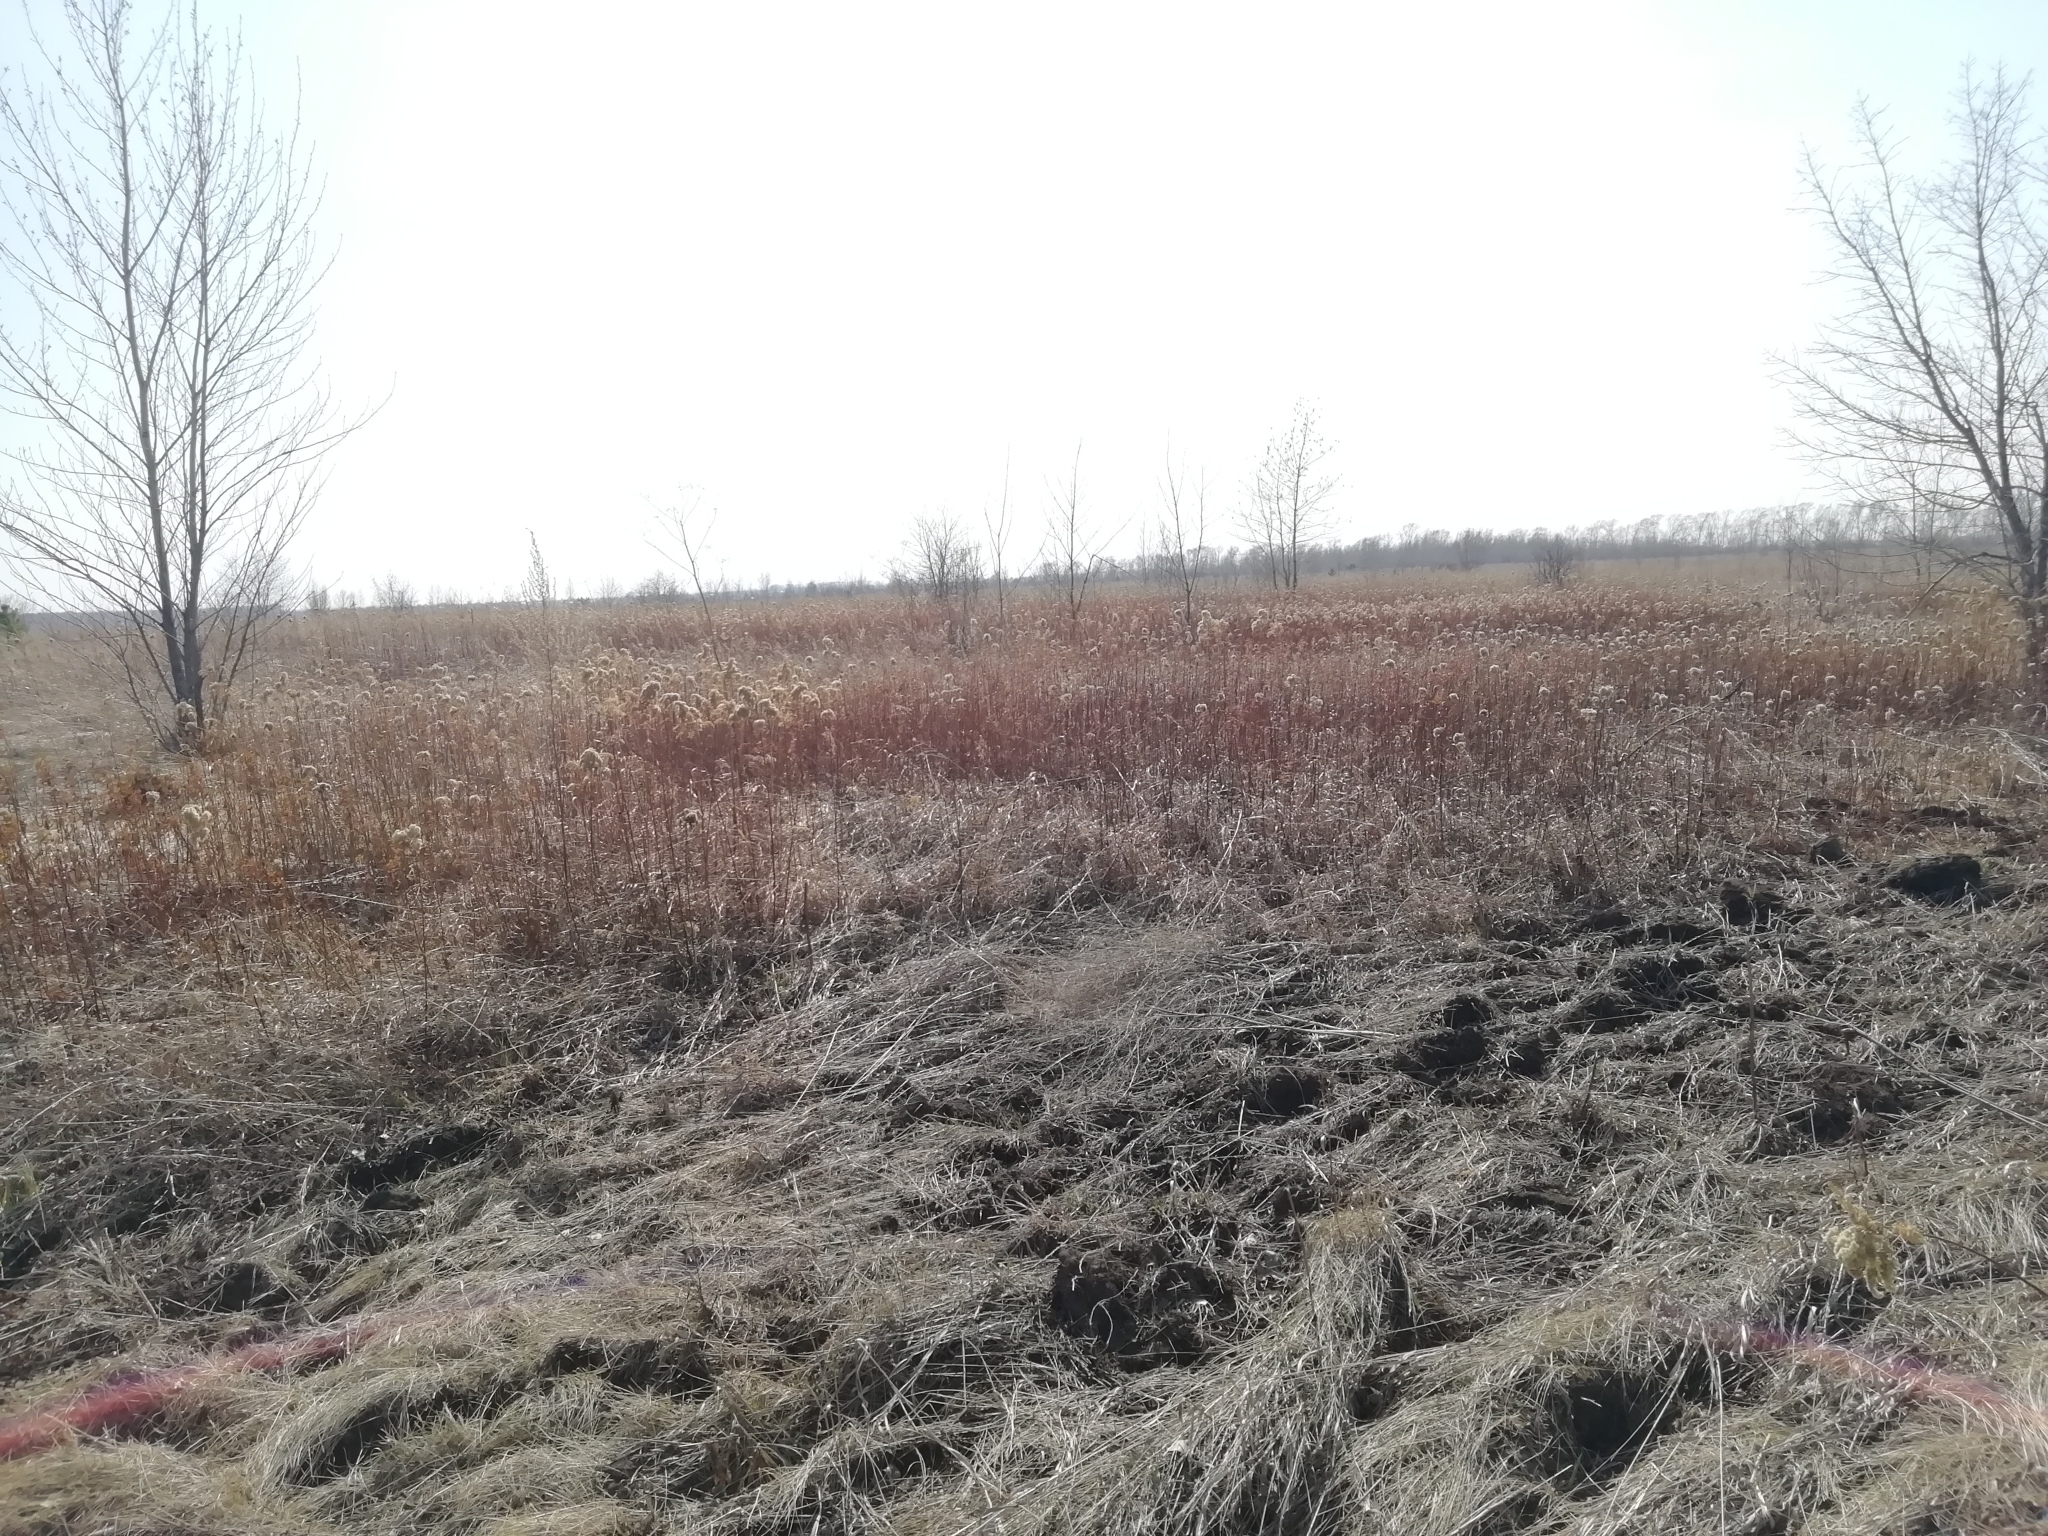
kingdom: Plantae
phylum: Tracheophyta
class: Magnoliopsida
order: Asterales
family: Asteraceae
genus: Solidago
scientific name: Solidago gigantea
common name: Giant goldenrod
